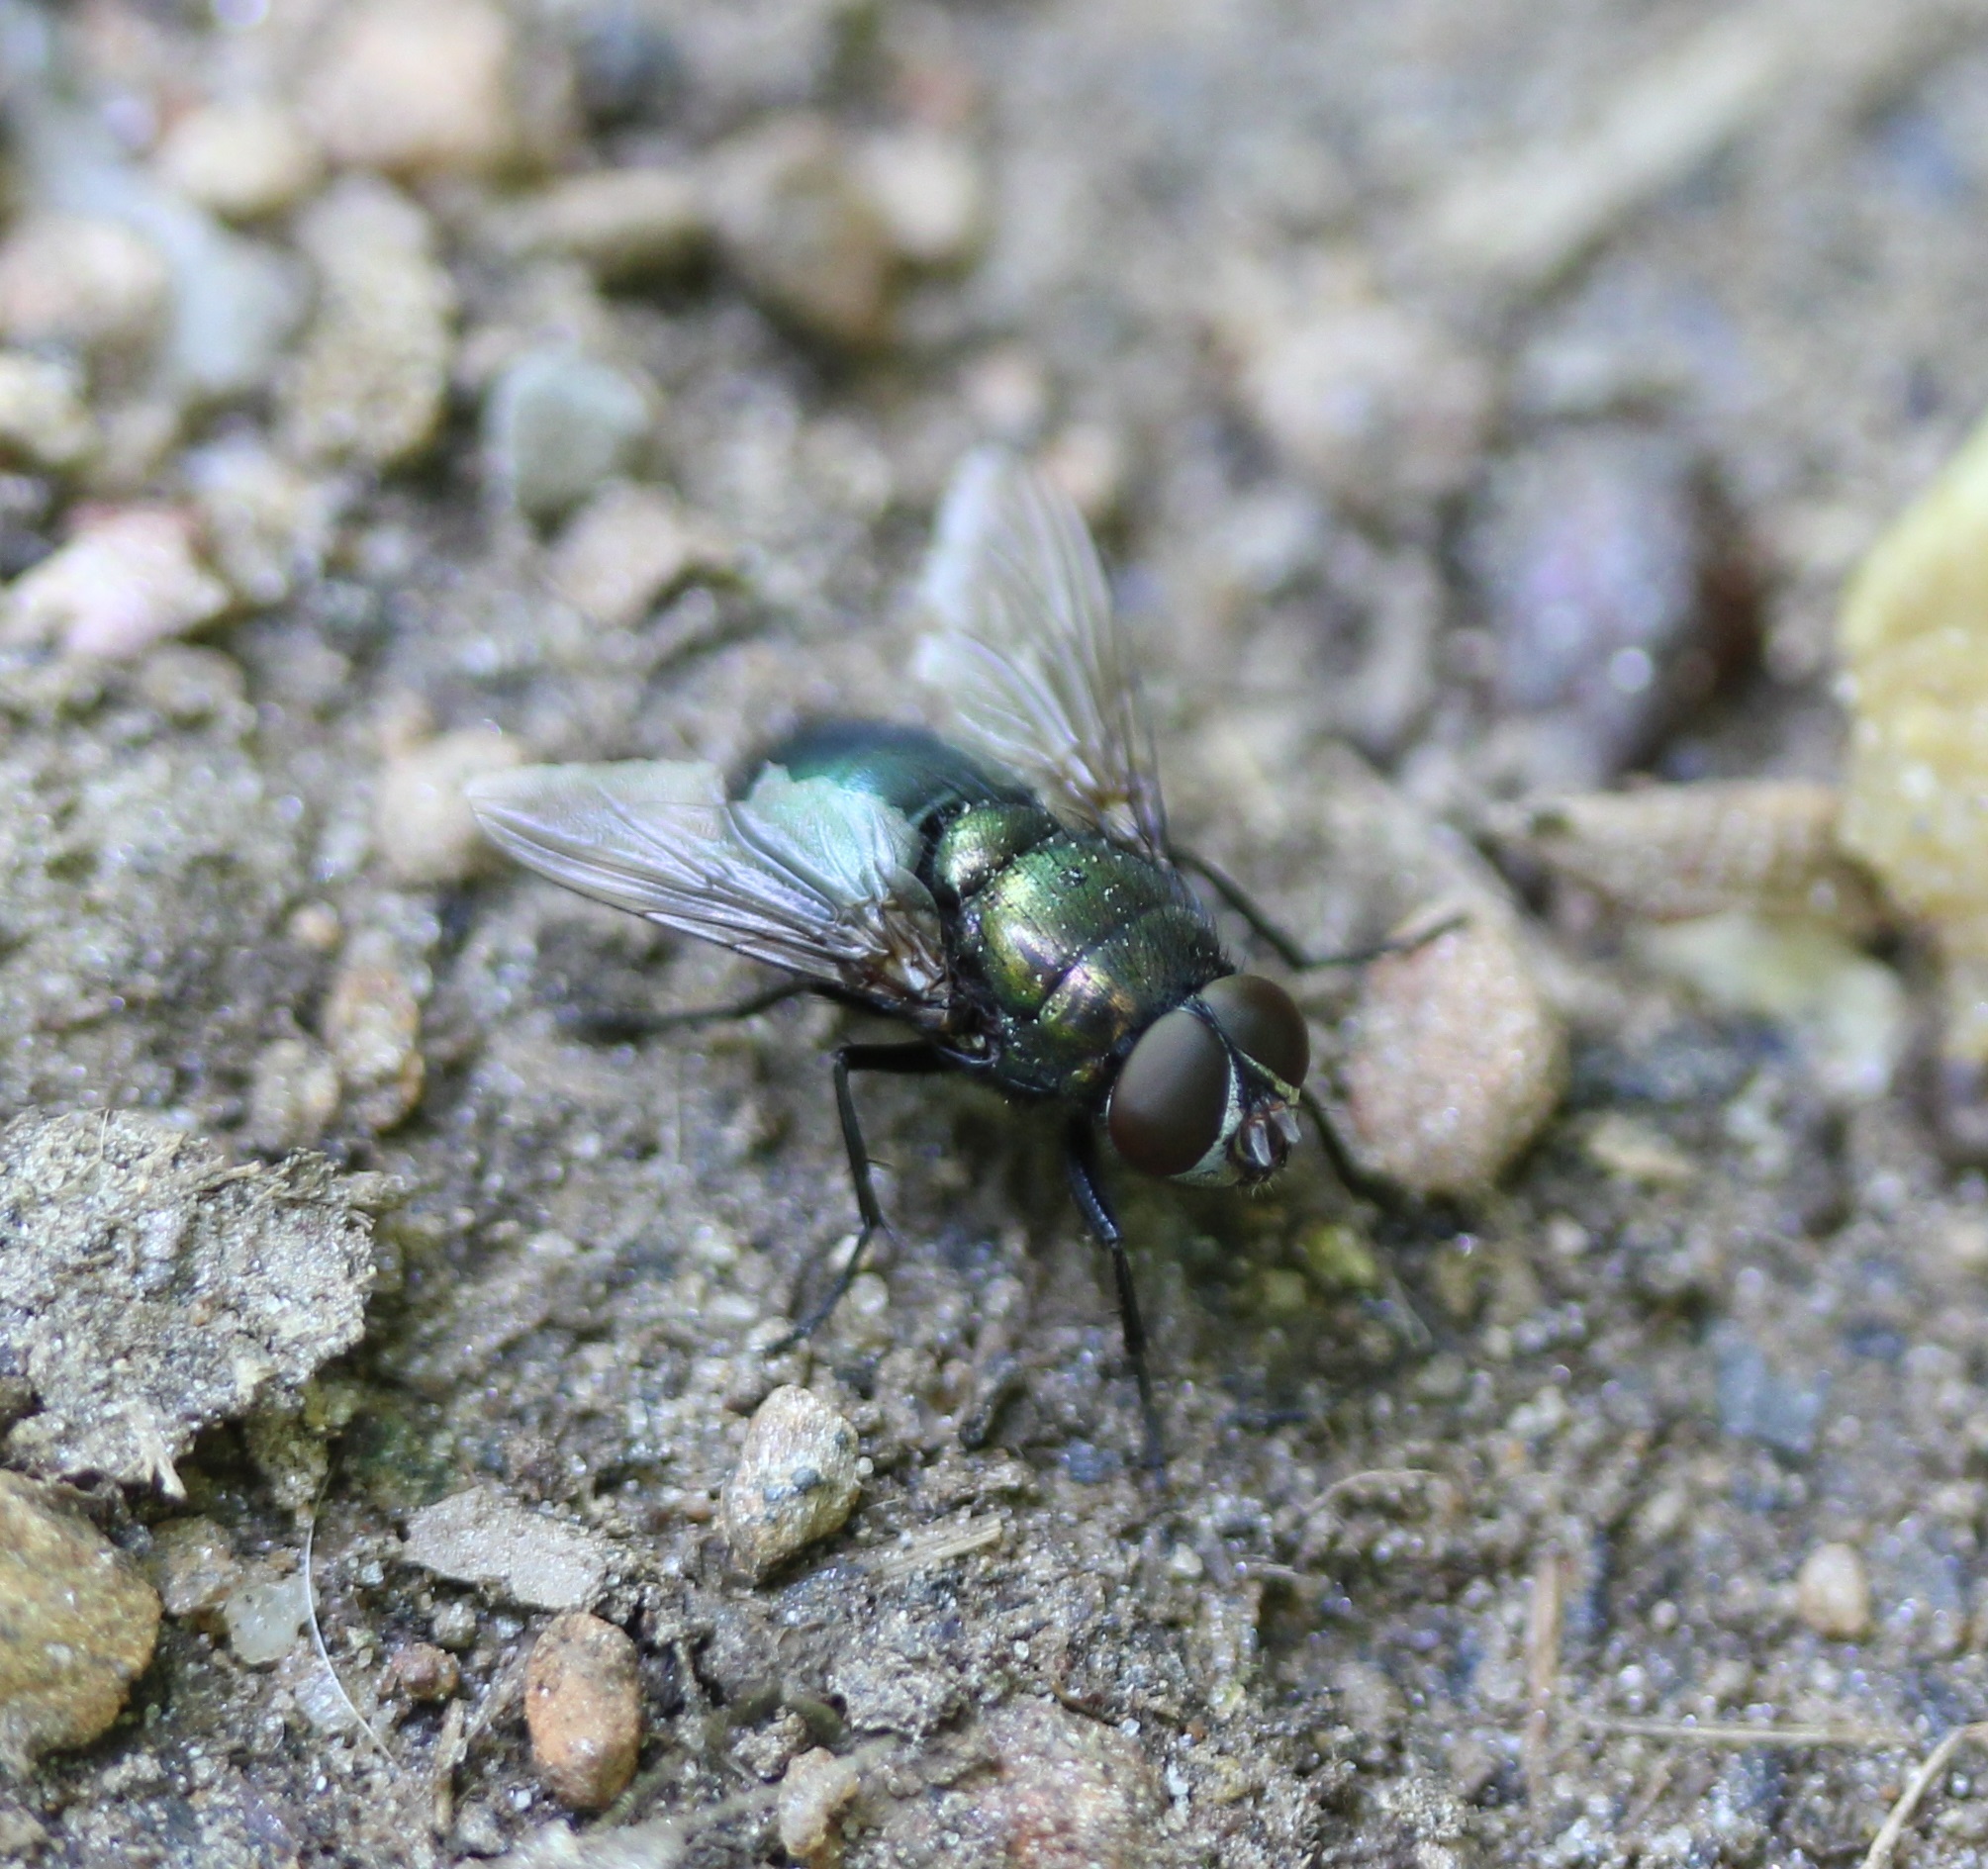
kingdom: Animalia
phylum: Arthropoda
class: Insecta
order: Diptera
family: Calliphoridae
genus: Phormia
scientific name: Phormia regina
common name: Black blow fly
